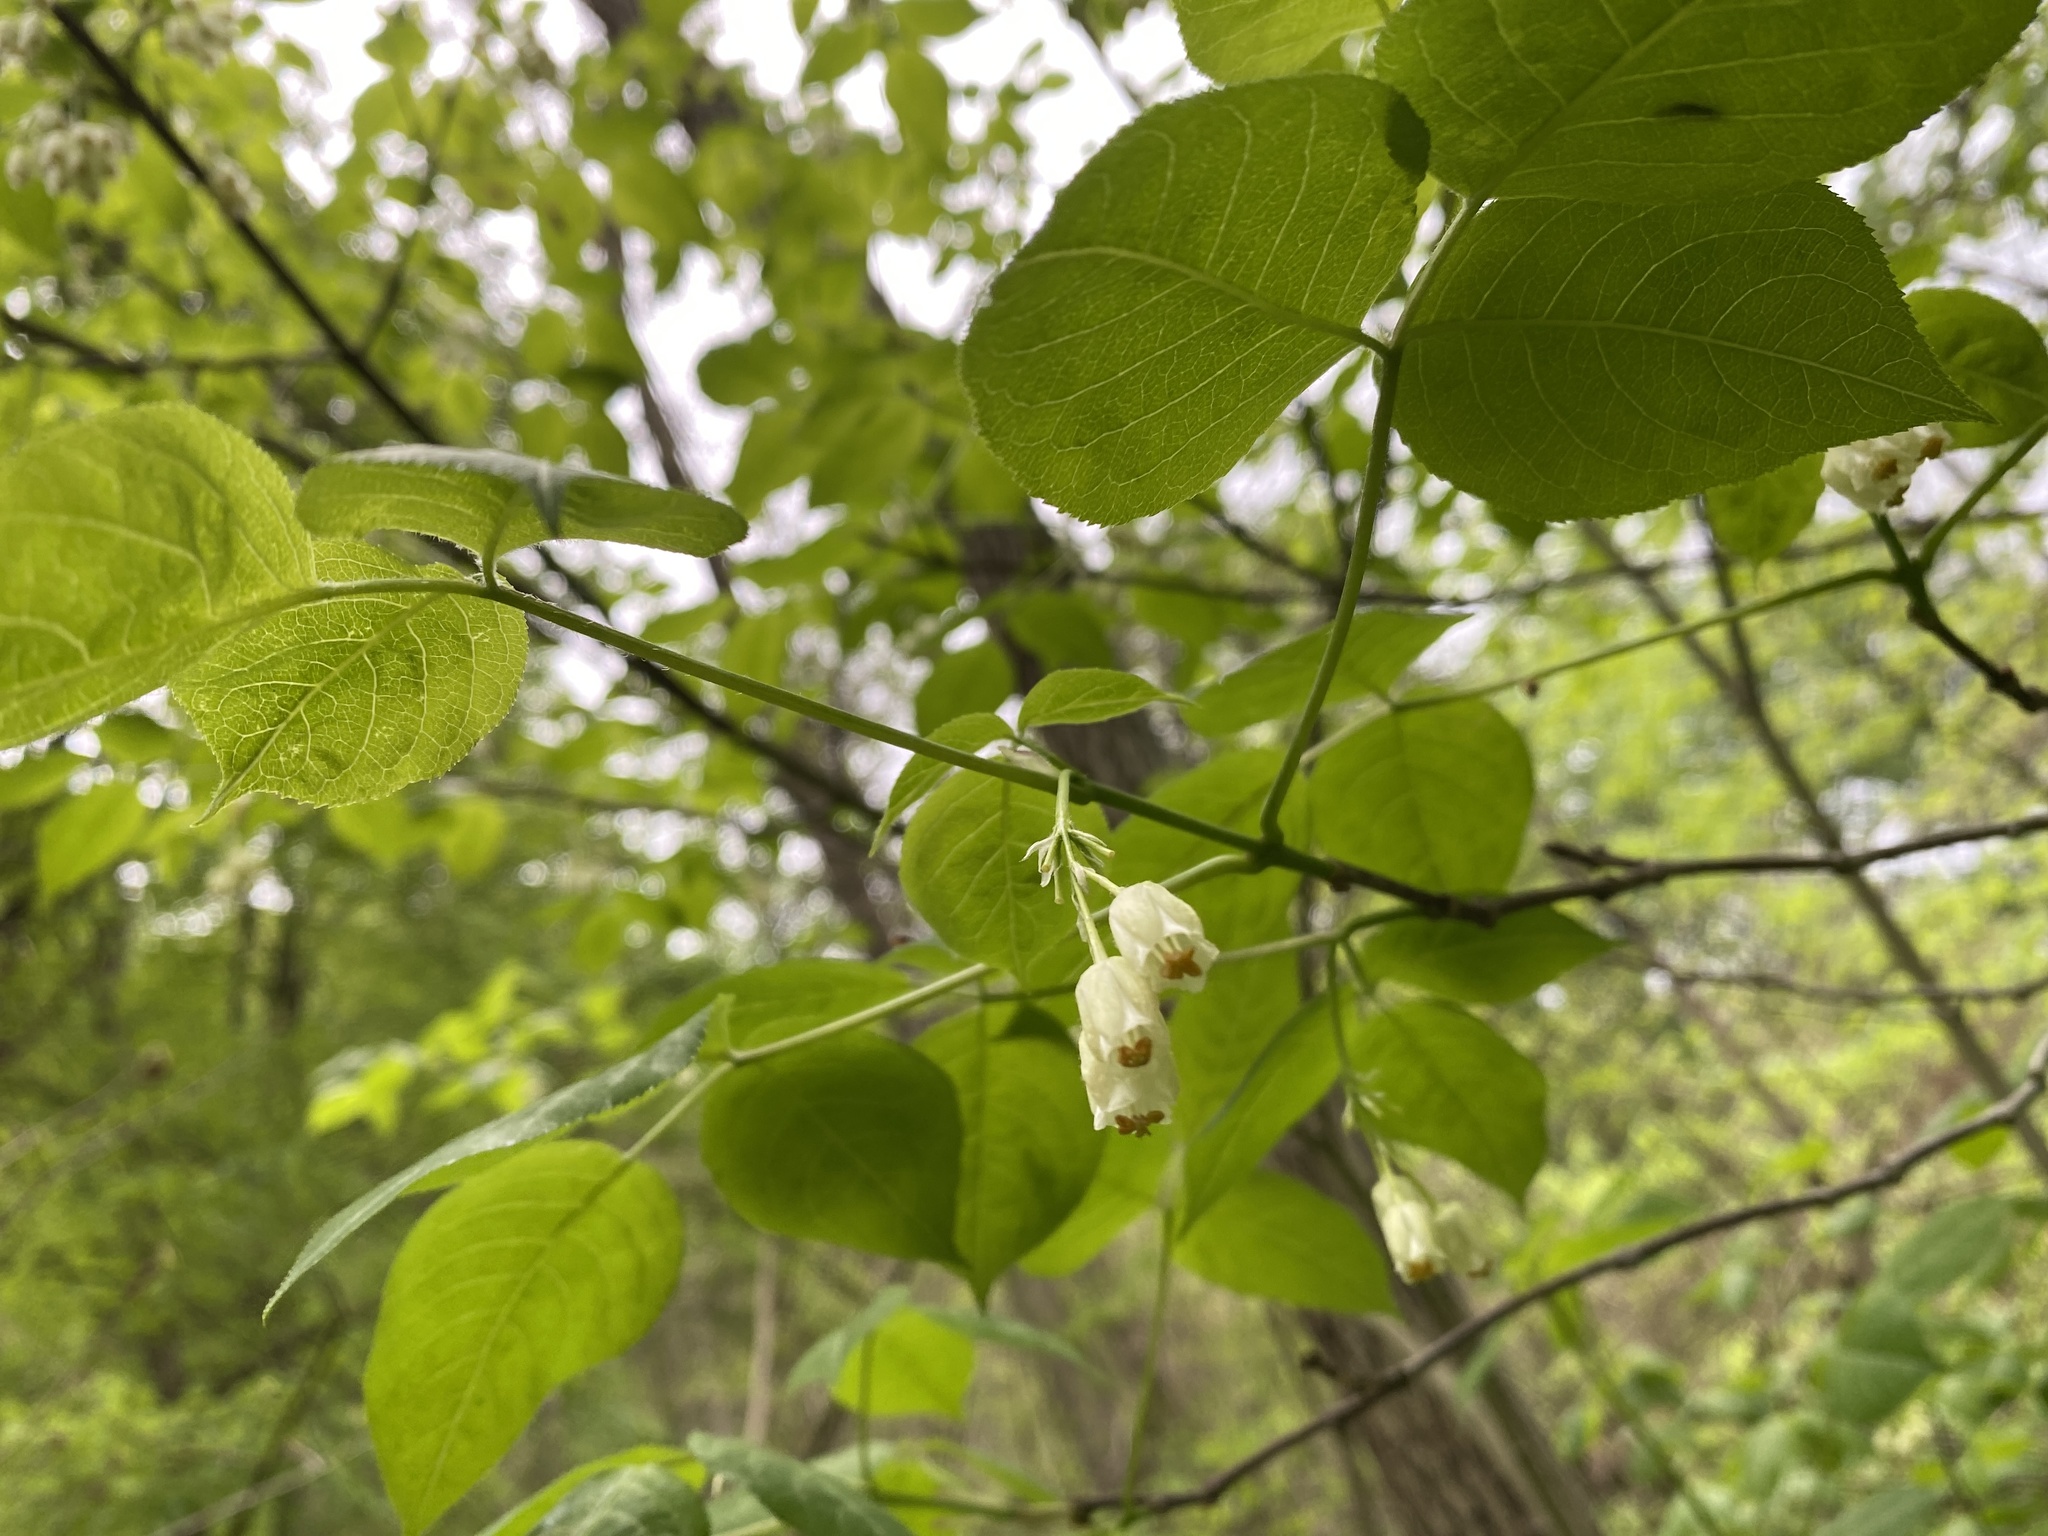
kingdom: Plantae
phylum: Tracheophyta
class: Magnoliopsida
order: Crossosomatales
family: Staphyleaceae
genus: Staphylea
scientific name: Staphylea trifolia
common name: American bladdernut
